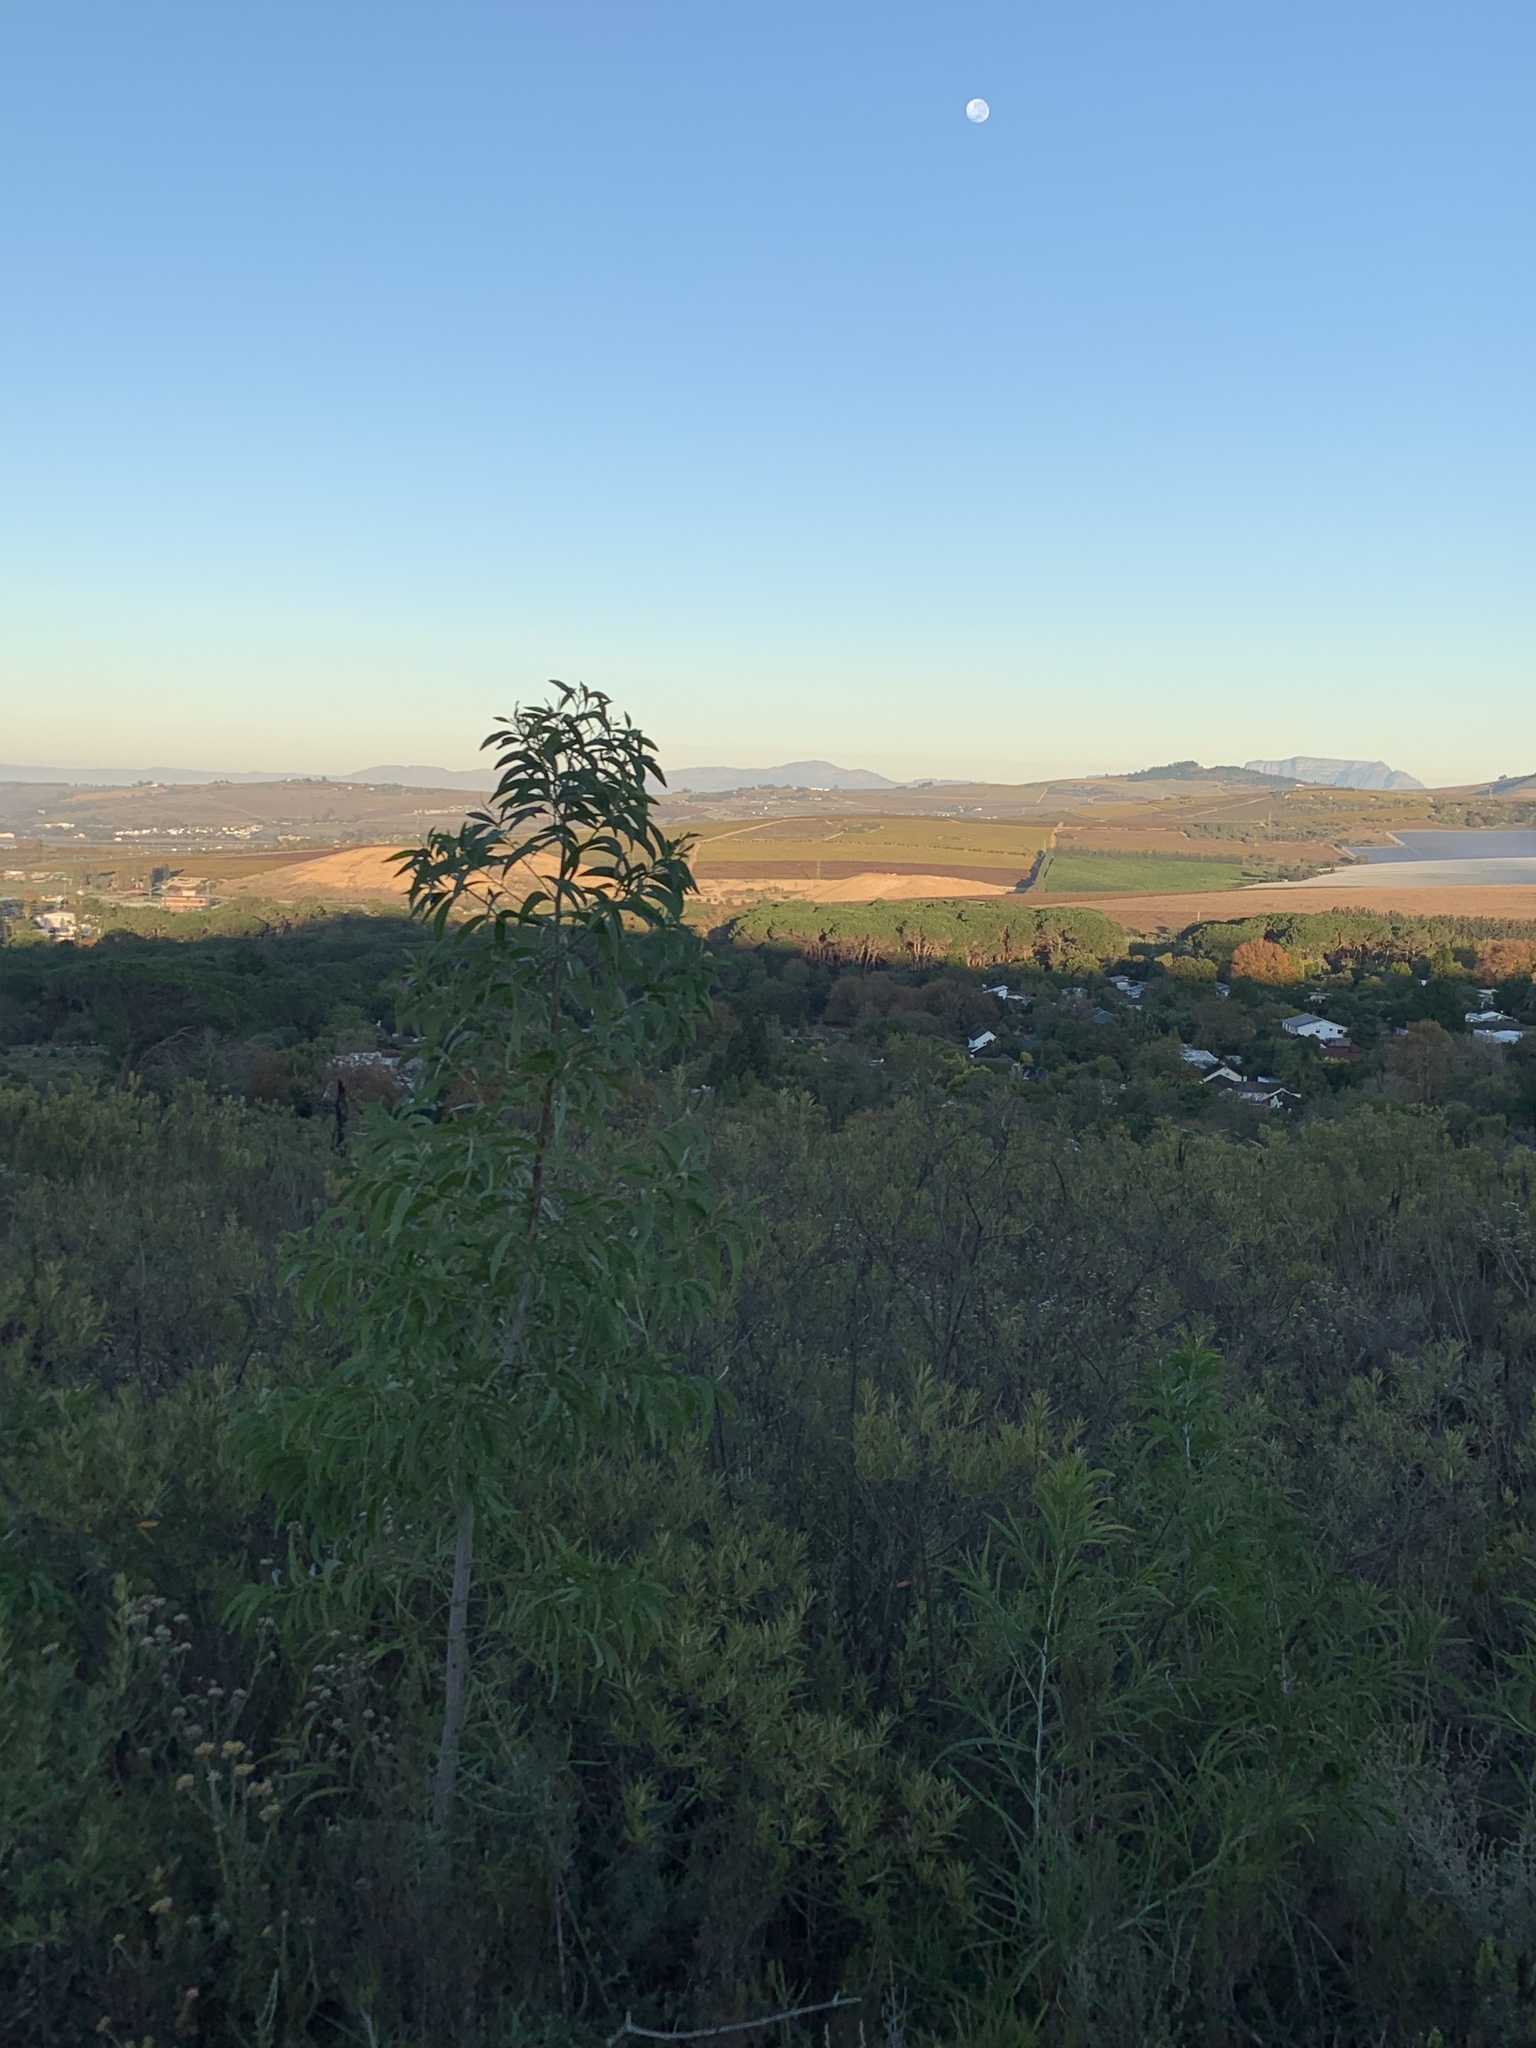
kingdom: Plantae
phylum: Tracheophyta
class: Magnoliopsida
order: Fabales
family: Fabaceae
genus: Acacia
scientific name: Acacia implexa
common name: Black wattle
